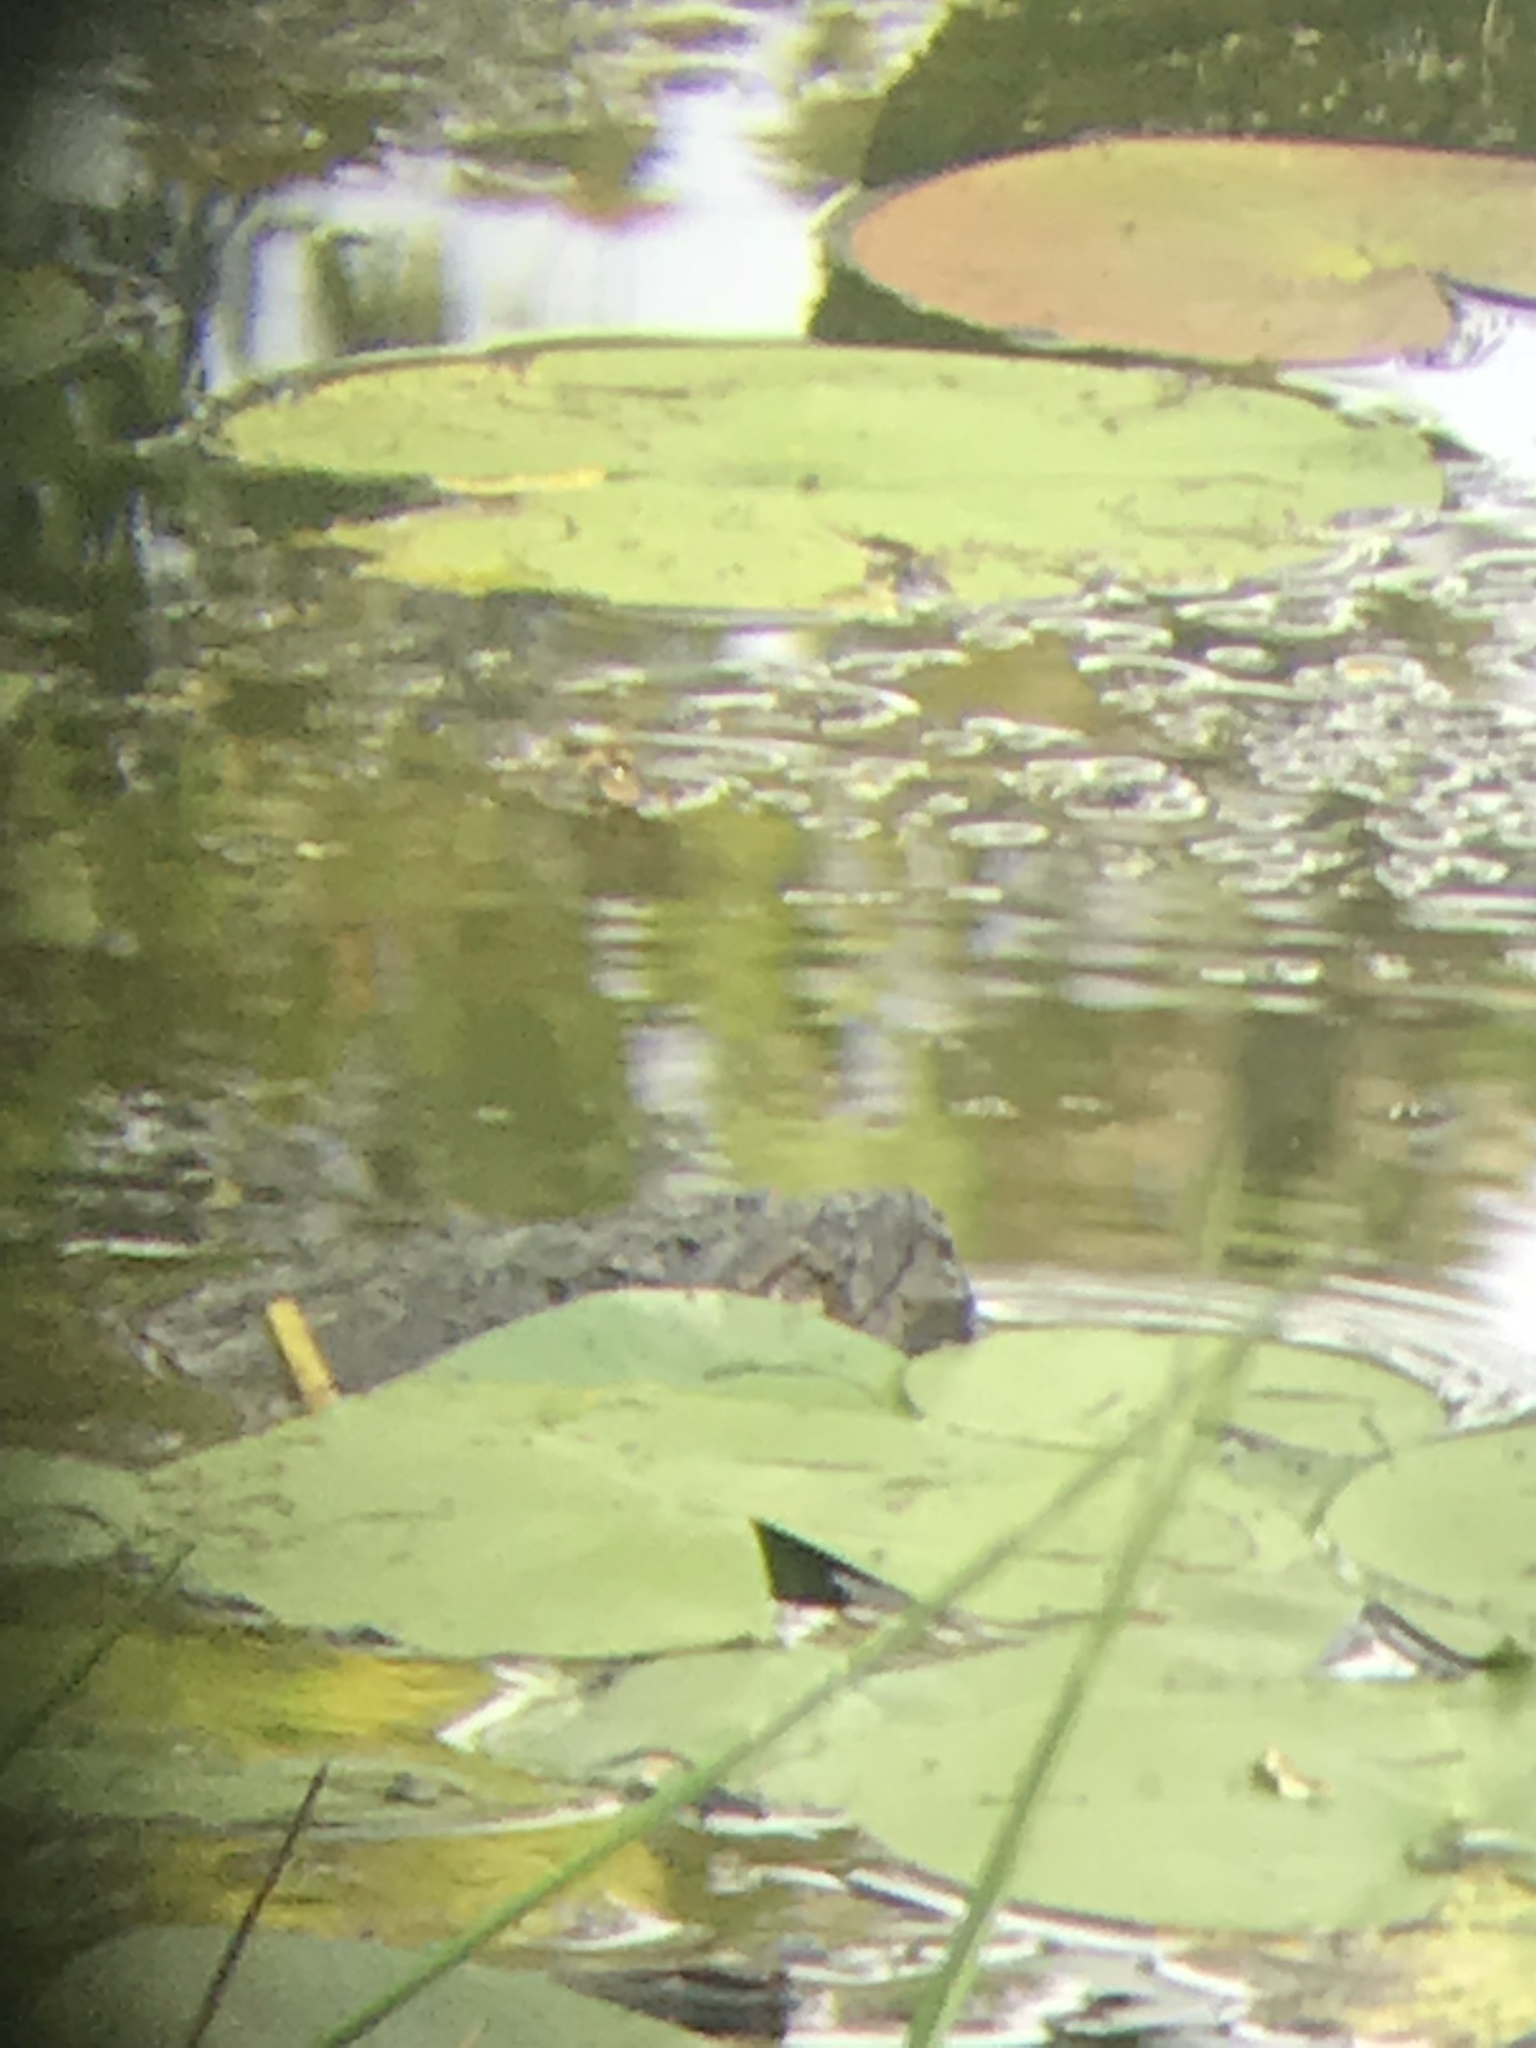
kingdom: Animalia
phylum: Chordata
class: Testudines
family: Chelydridae
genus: Chelydra
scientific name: Chelydra serpentina
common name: Common snapping turtle
